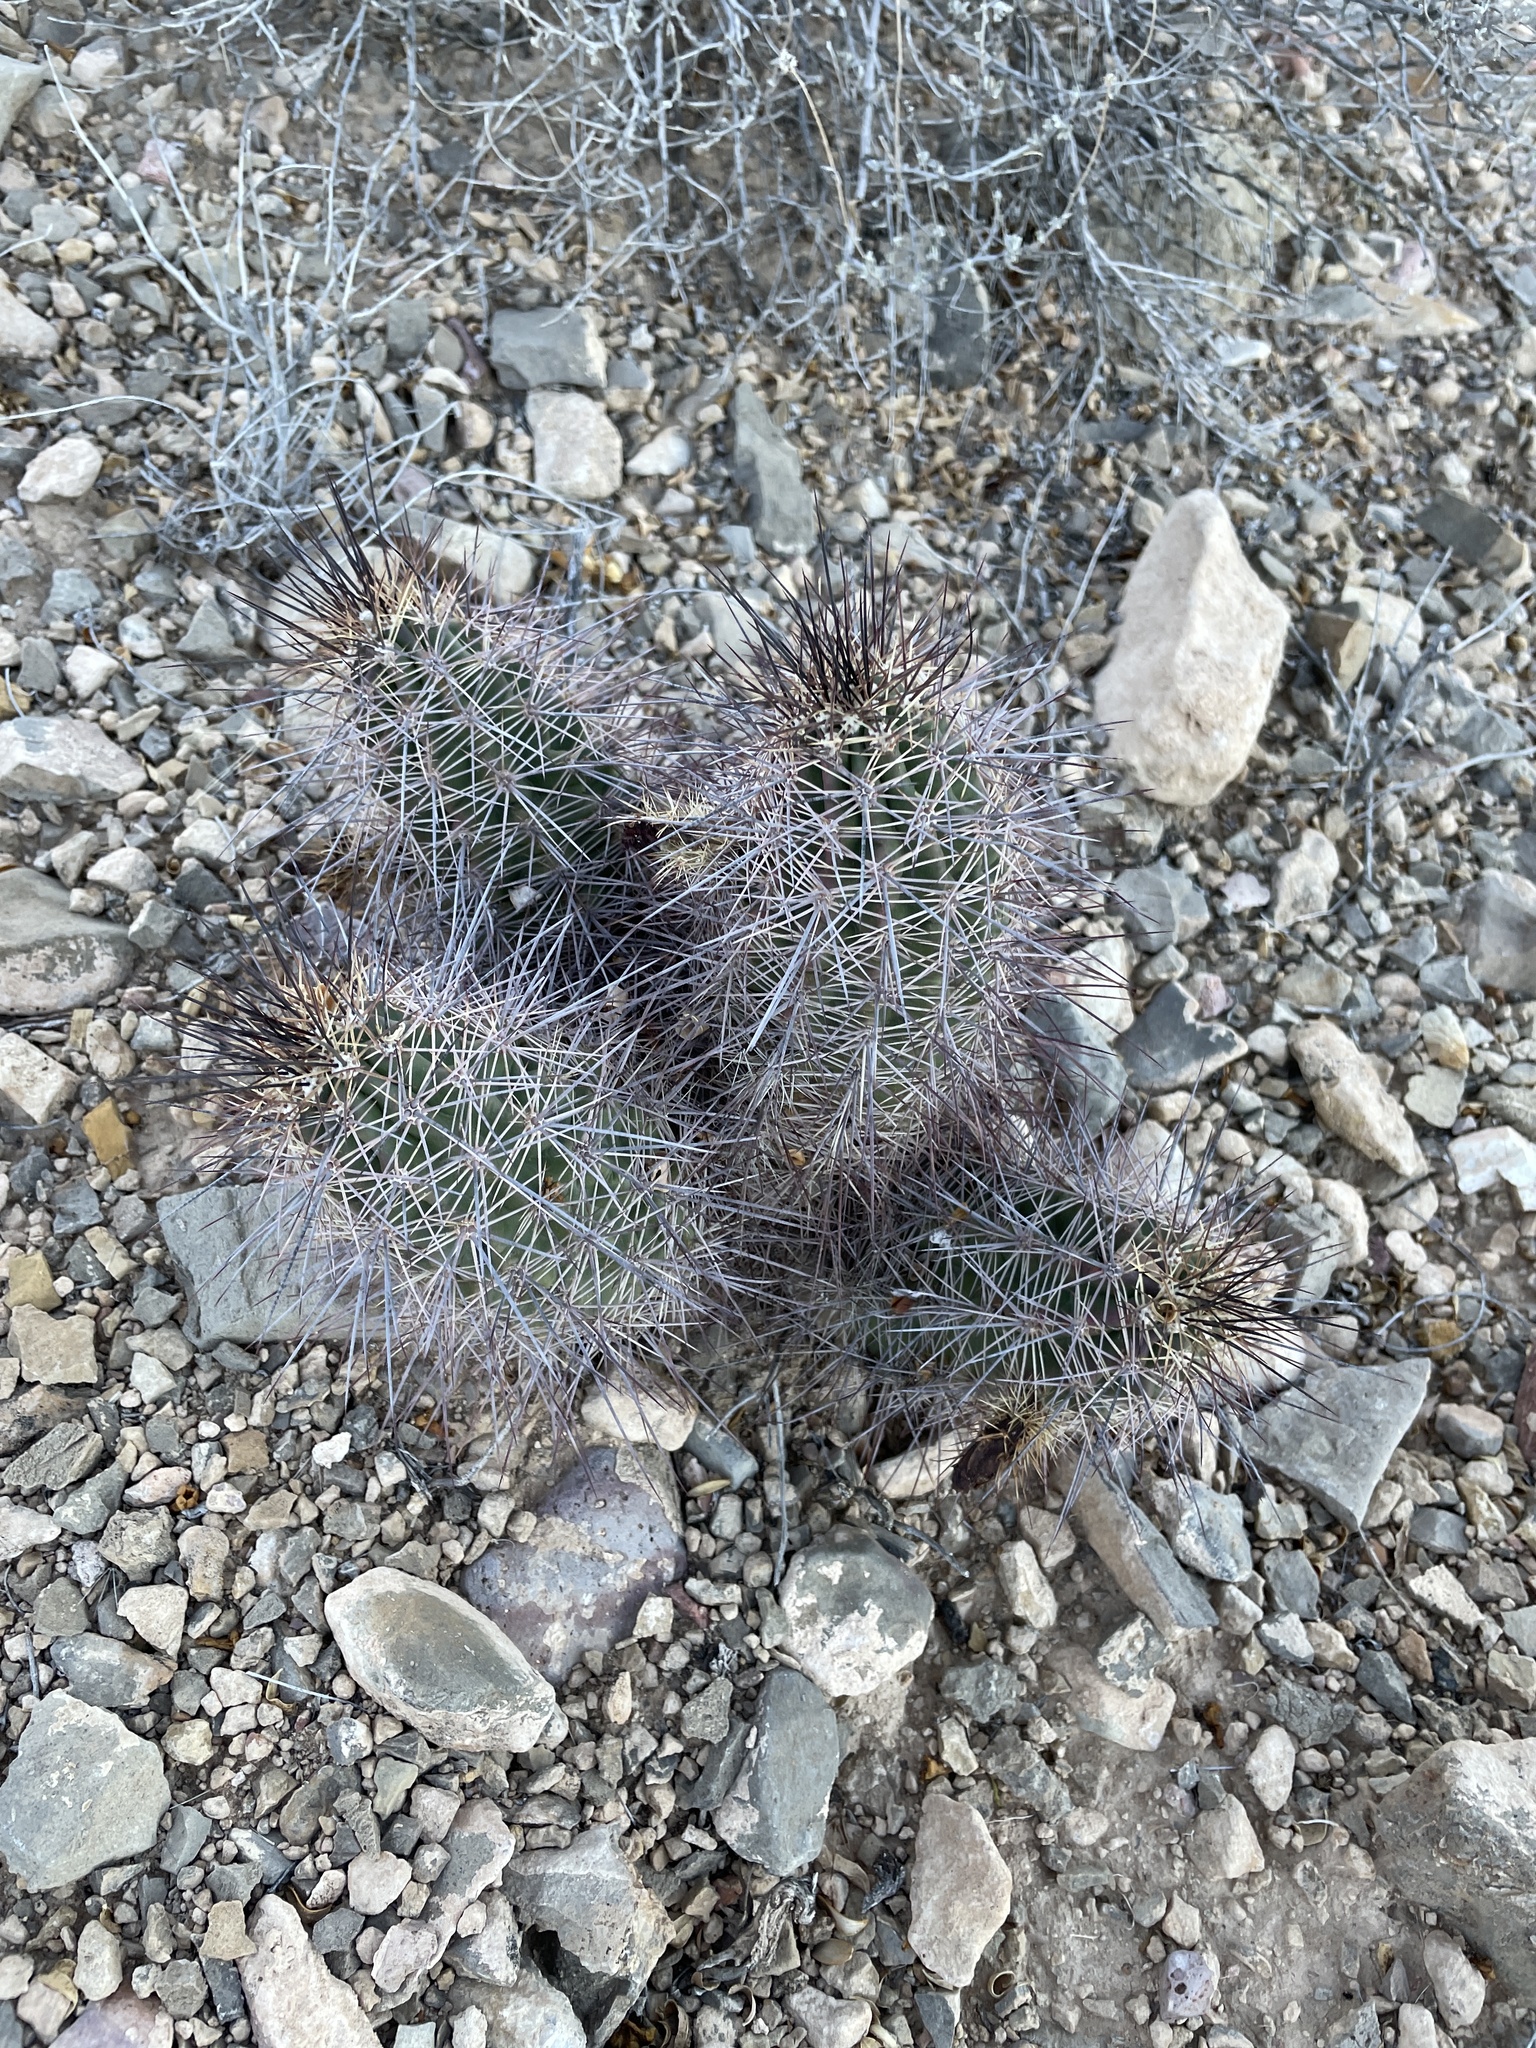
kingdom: Plantae
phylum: Tracheophyta
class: Magnoliopsida
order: Caryophyllales
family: Cactaceae
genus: Echinocereus
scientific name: Echinocereus coccineus
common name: Scarlet hedgehog cactus
